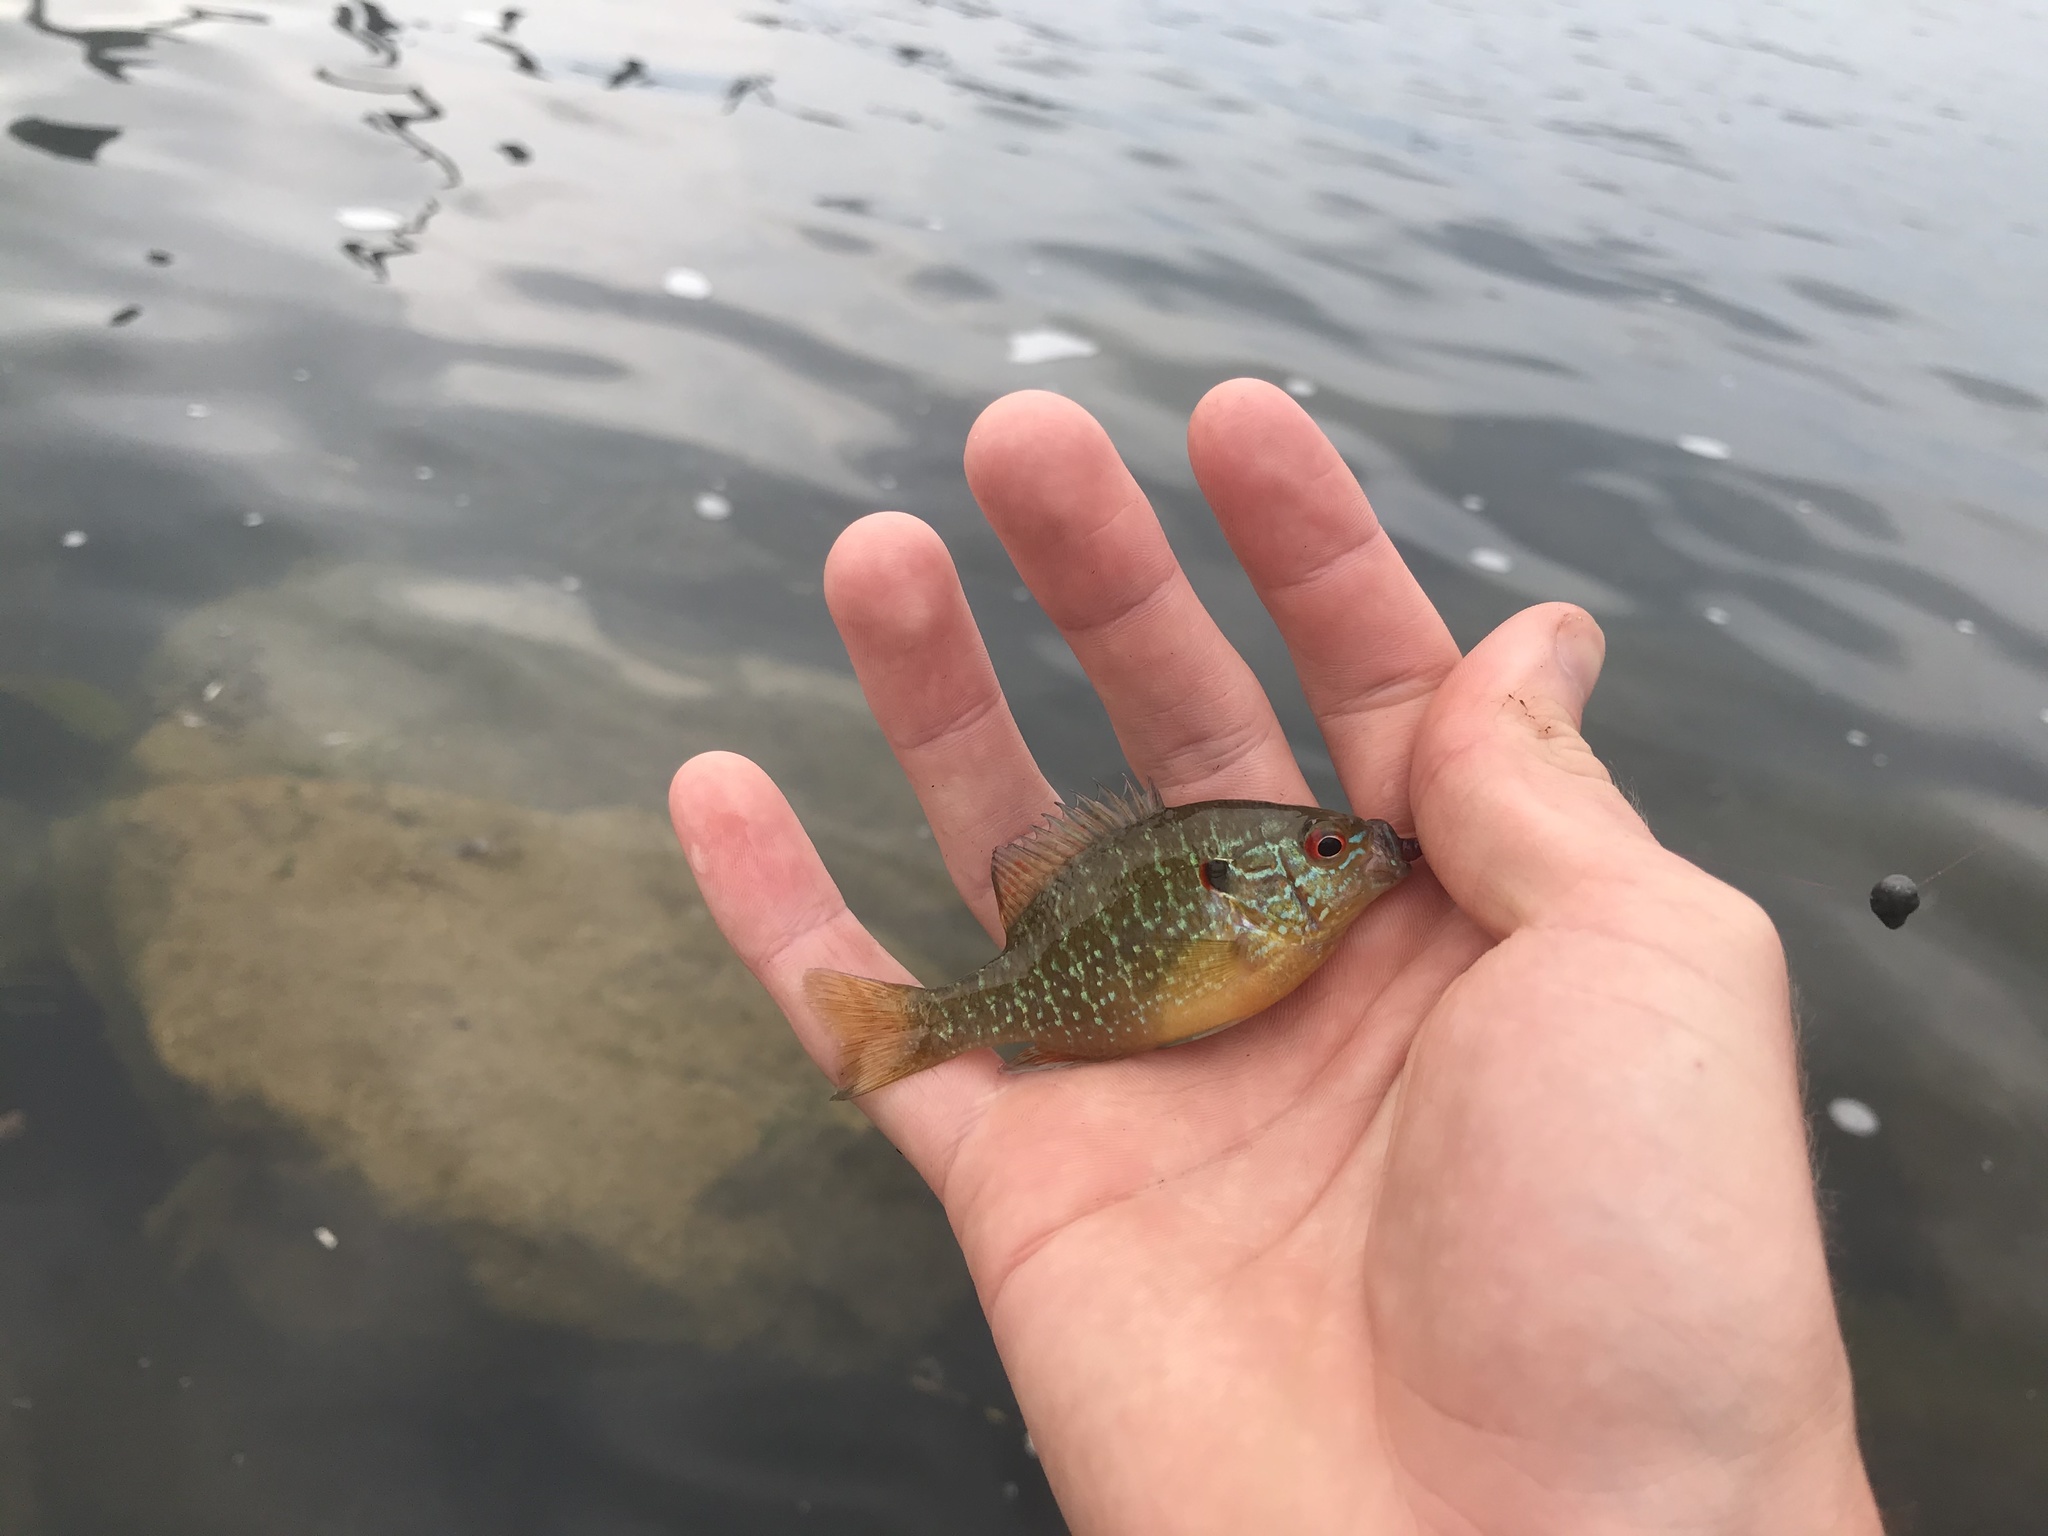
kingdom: Animalia
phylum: Chordata
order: Perciformes
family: Centrarchidae
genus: Lepomis
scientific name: Lepomis peltastes
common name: Northern sunfish
